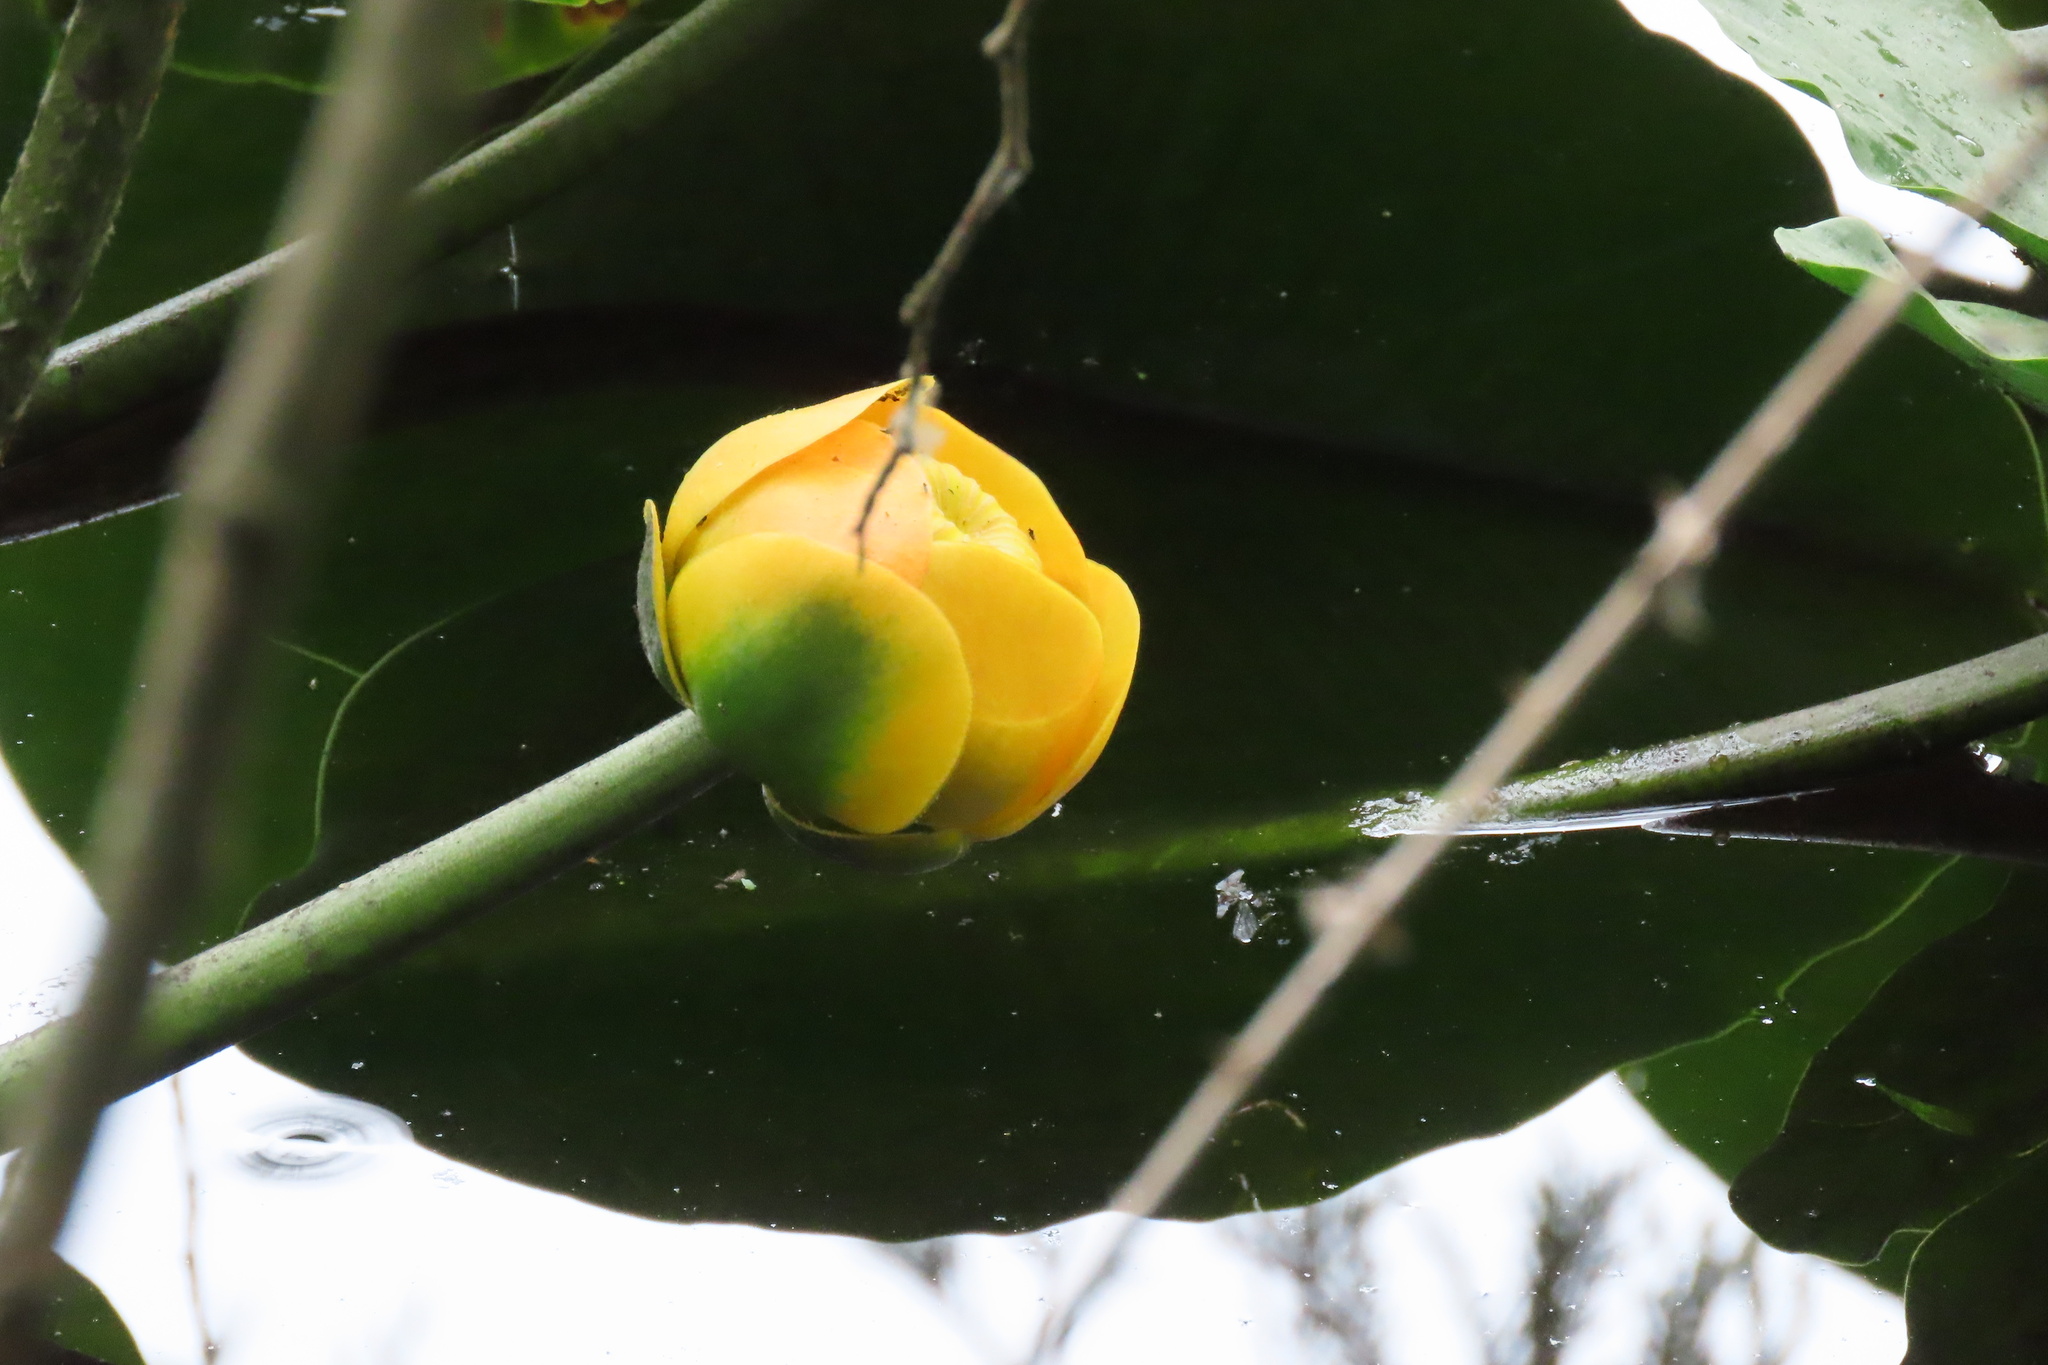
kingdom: Plantae
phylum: Tracheophyta
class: Magnoliopsida
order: Nymphaeales
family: Nymphaeaceae
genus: Nuphar
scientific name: Nuphar polysepala
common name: Rocky mountain cow-lily
